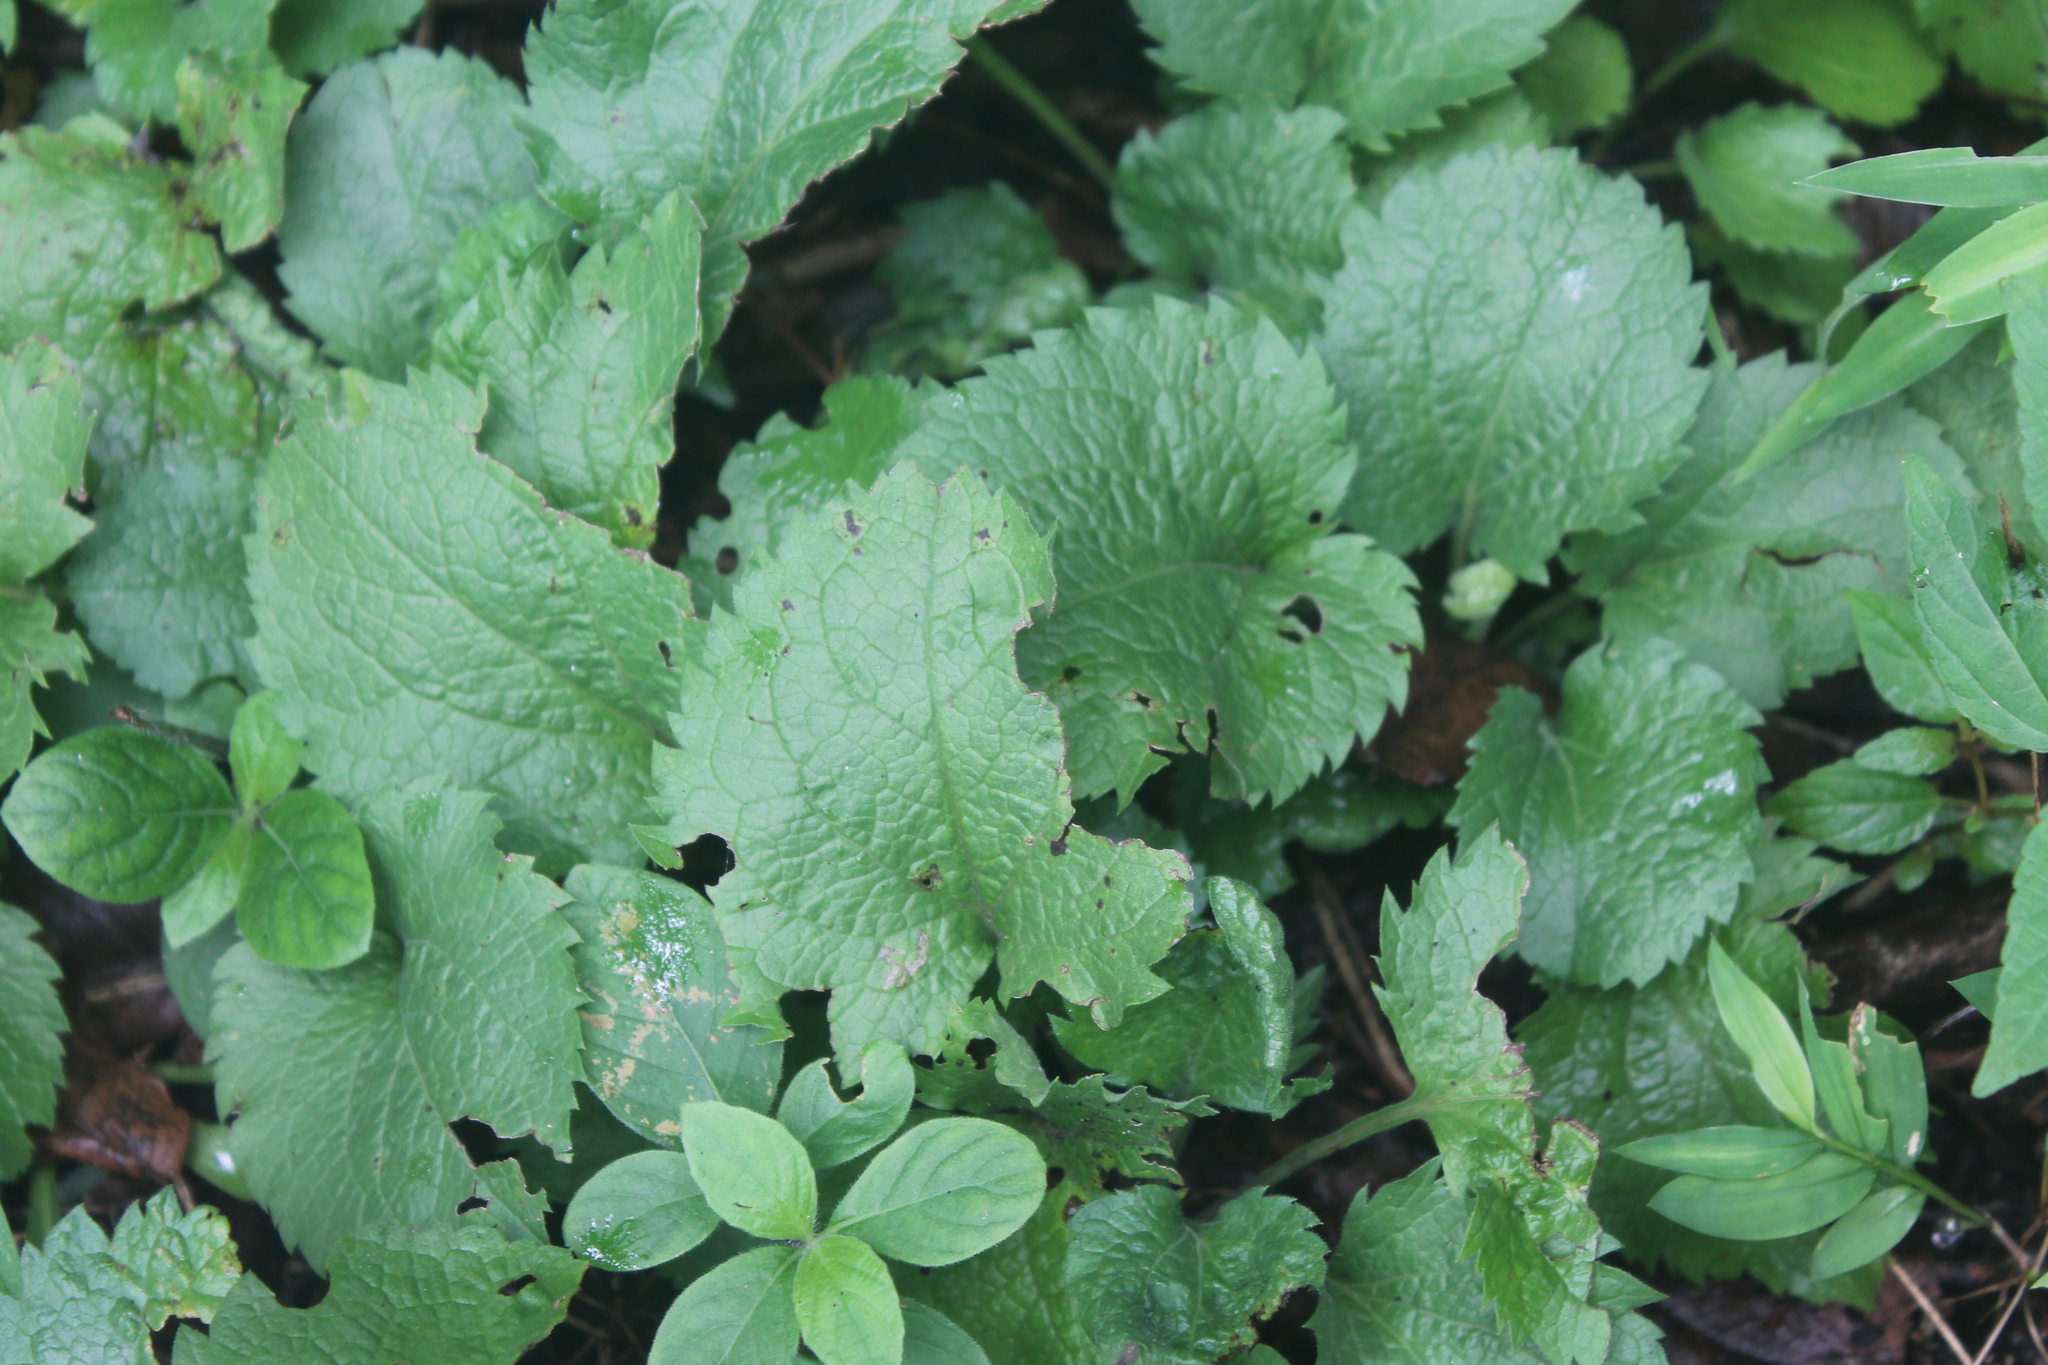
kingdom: Plantae
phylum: Tracheophyta
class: Magnoliopsida
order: Asterales
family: Asteraceae
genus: Solidago
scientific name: Solidago sphacelata
